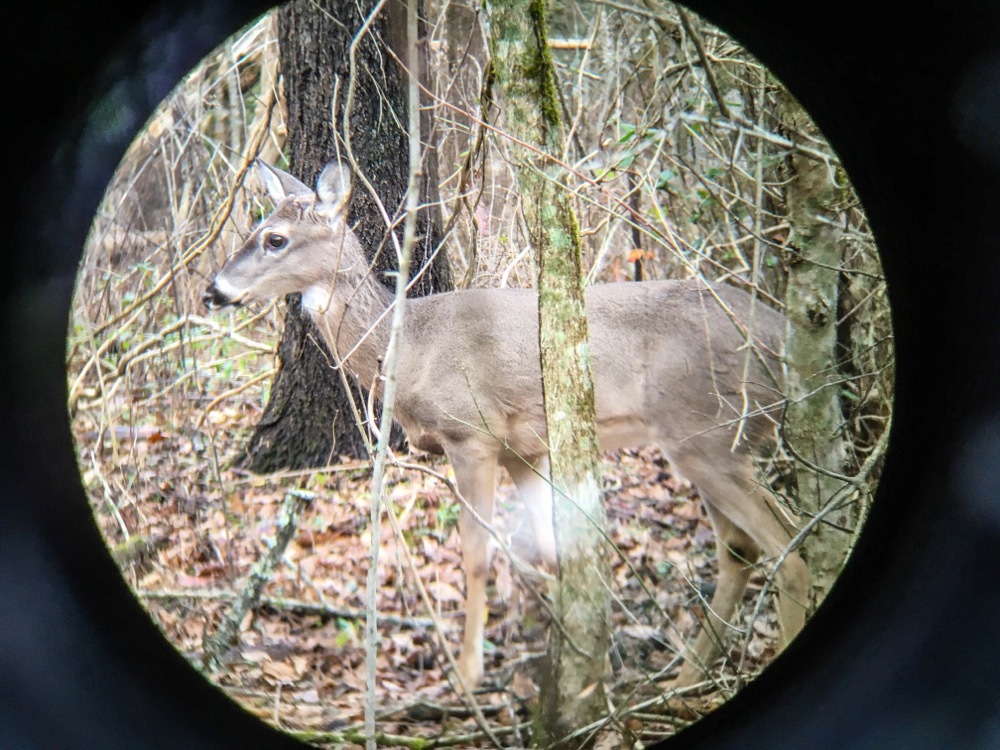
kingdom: Animalia
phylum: Chordata
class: Mammalia
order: Artiodactyla
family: Cervidae
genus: Odocoileus
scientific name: Odocoileus virginianus
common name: White-tailed deer
